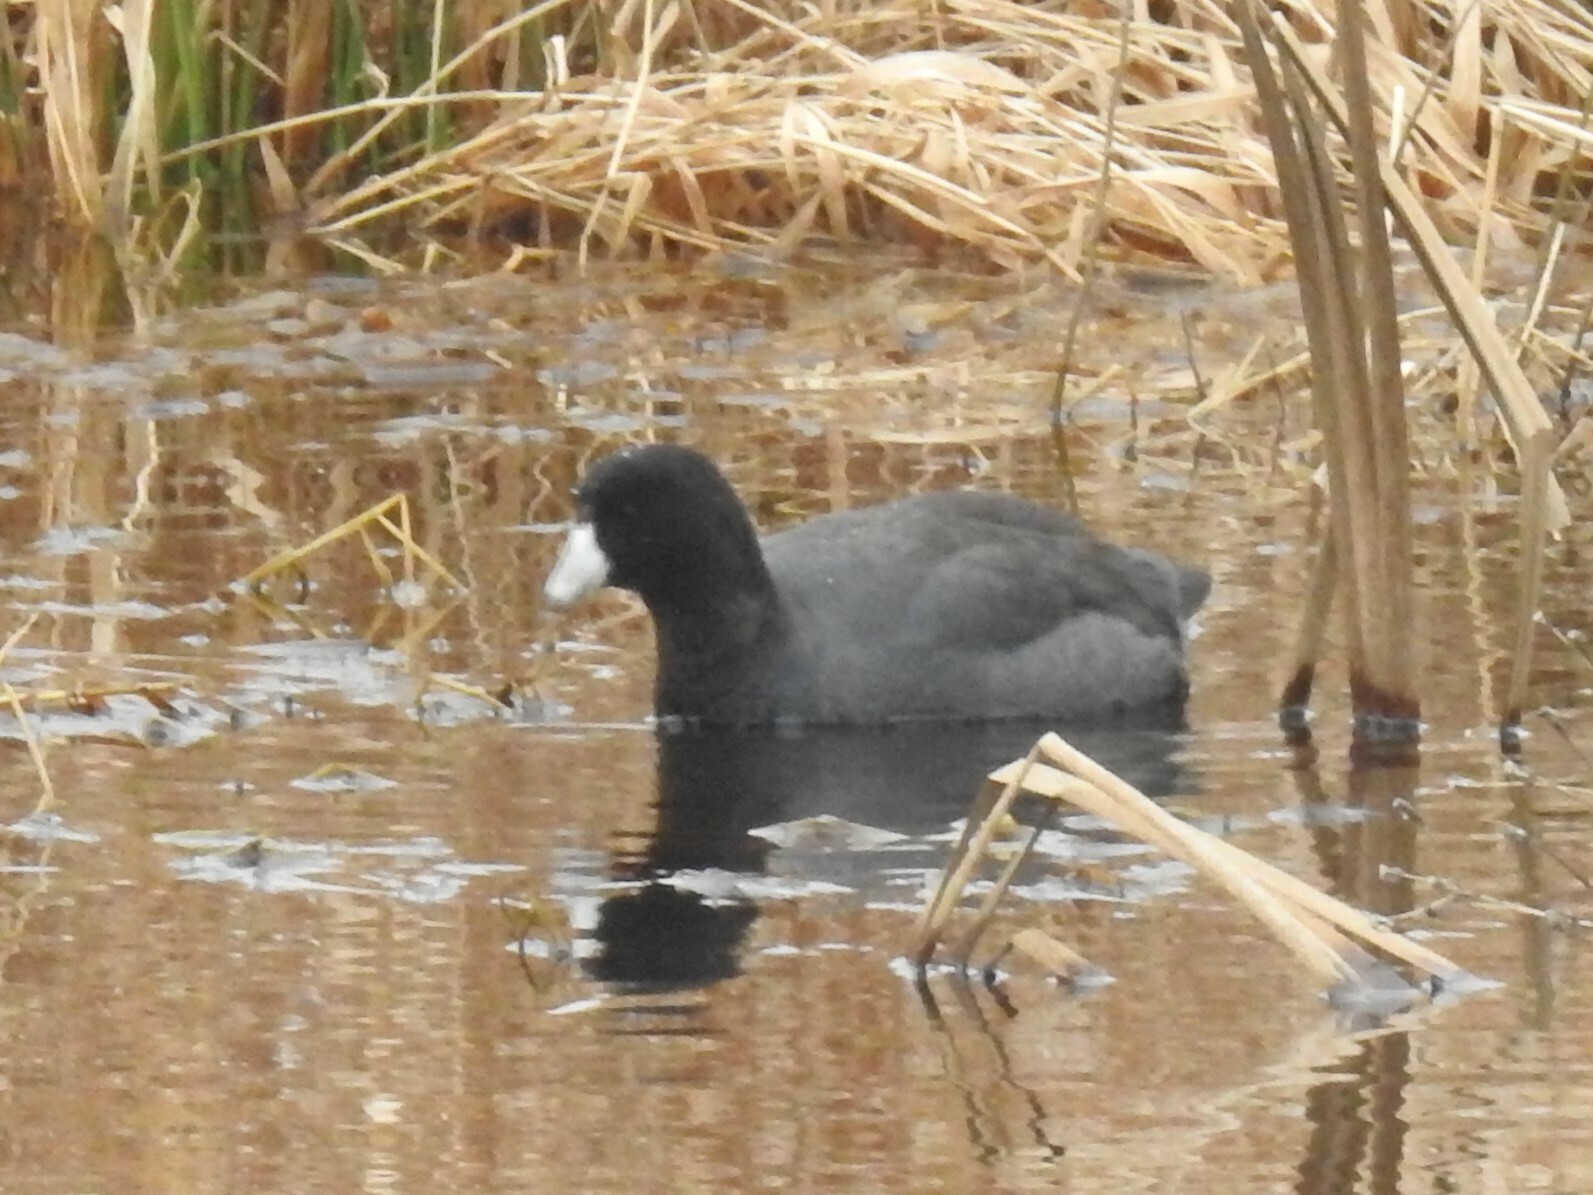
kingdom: Animalia
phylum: Chordata
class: Aves
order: Gruiformes
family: Rallidae
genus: Fulica
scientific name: Fulica americana
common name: American coot
